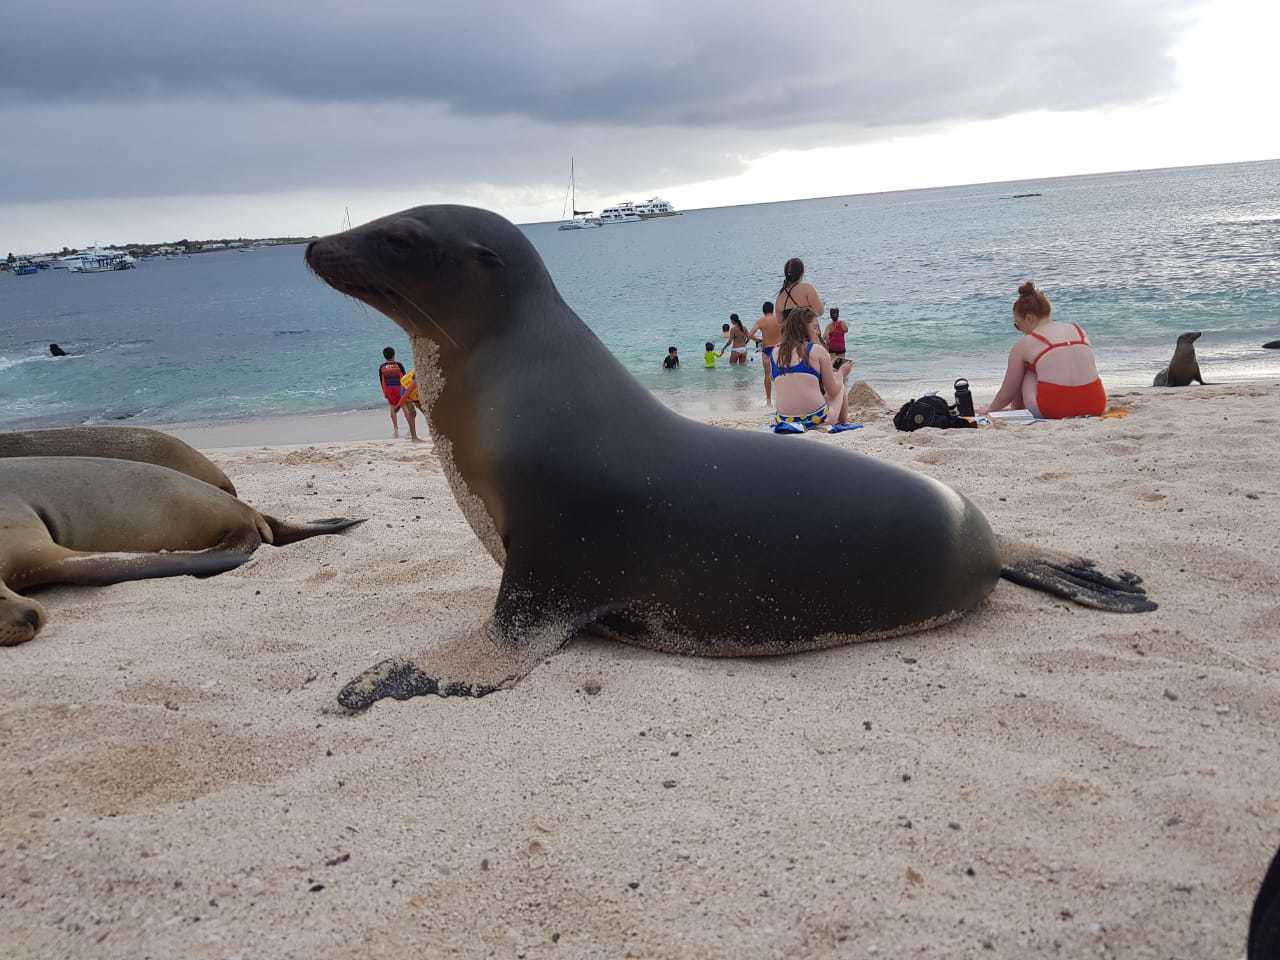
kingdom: Animalia
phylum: Chordata
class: Mammalia
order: Carnivora
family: Otariidae
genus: Zalophus
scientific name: Zalophus wollebaeki
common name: Galapagos sea lion
